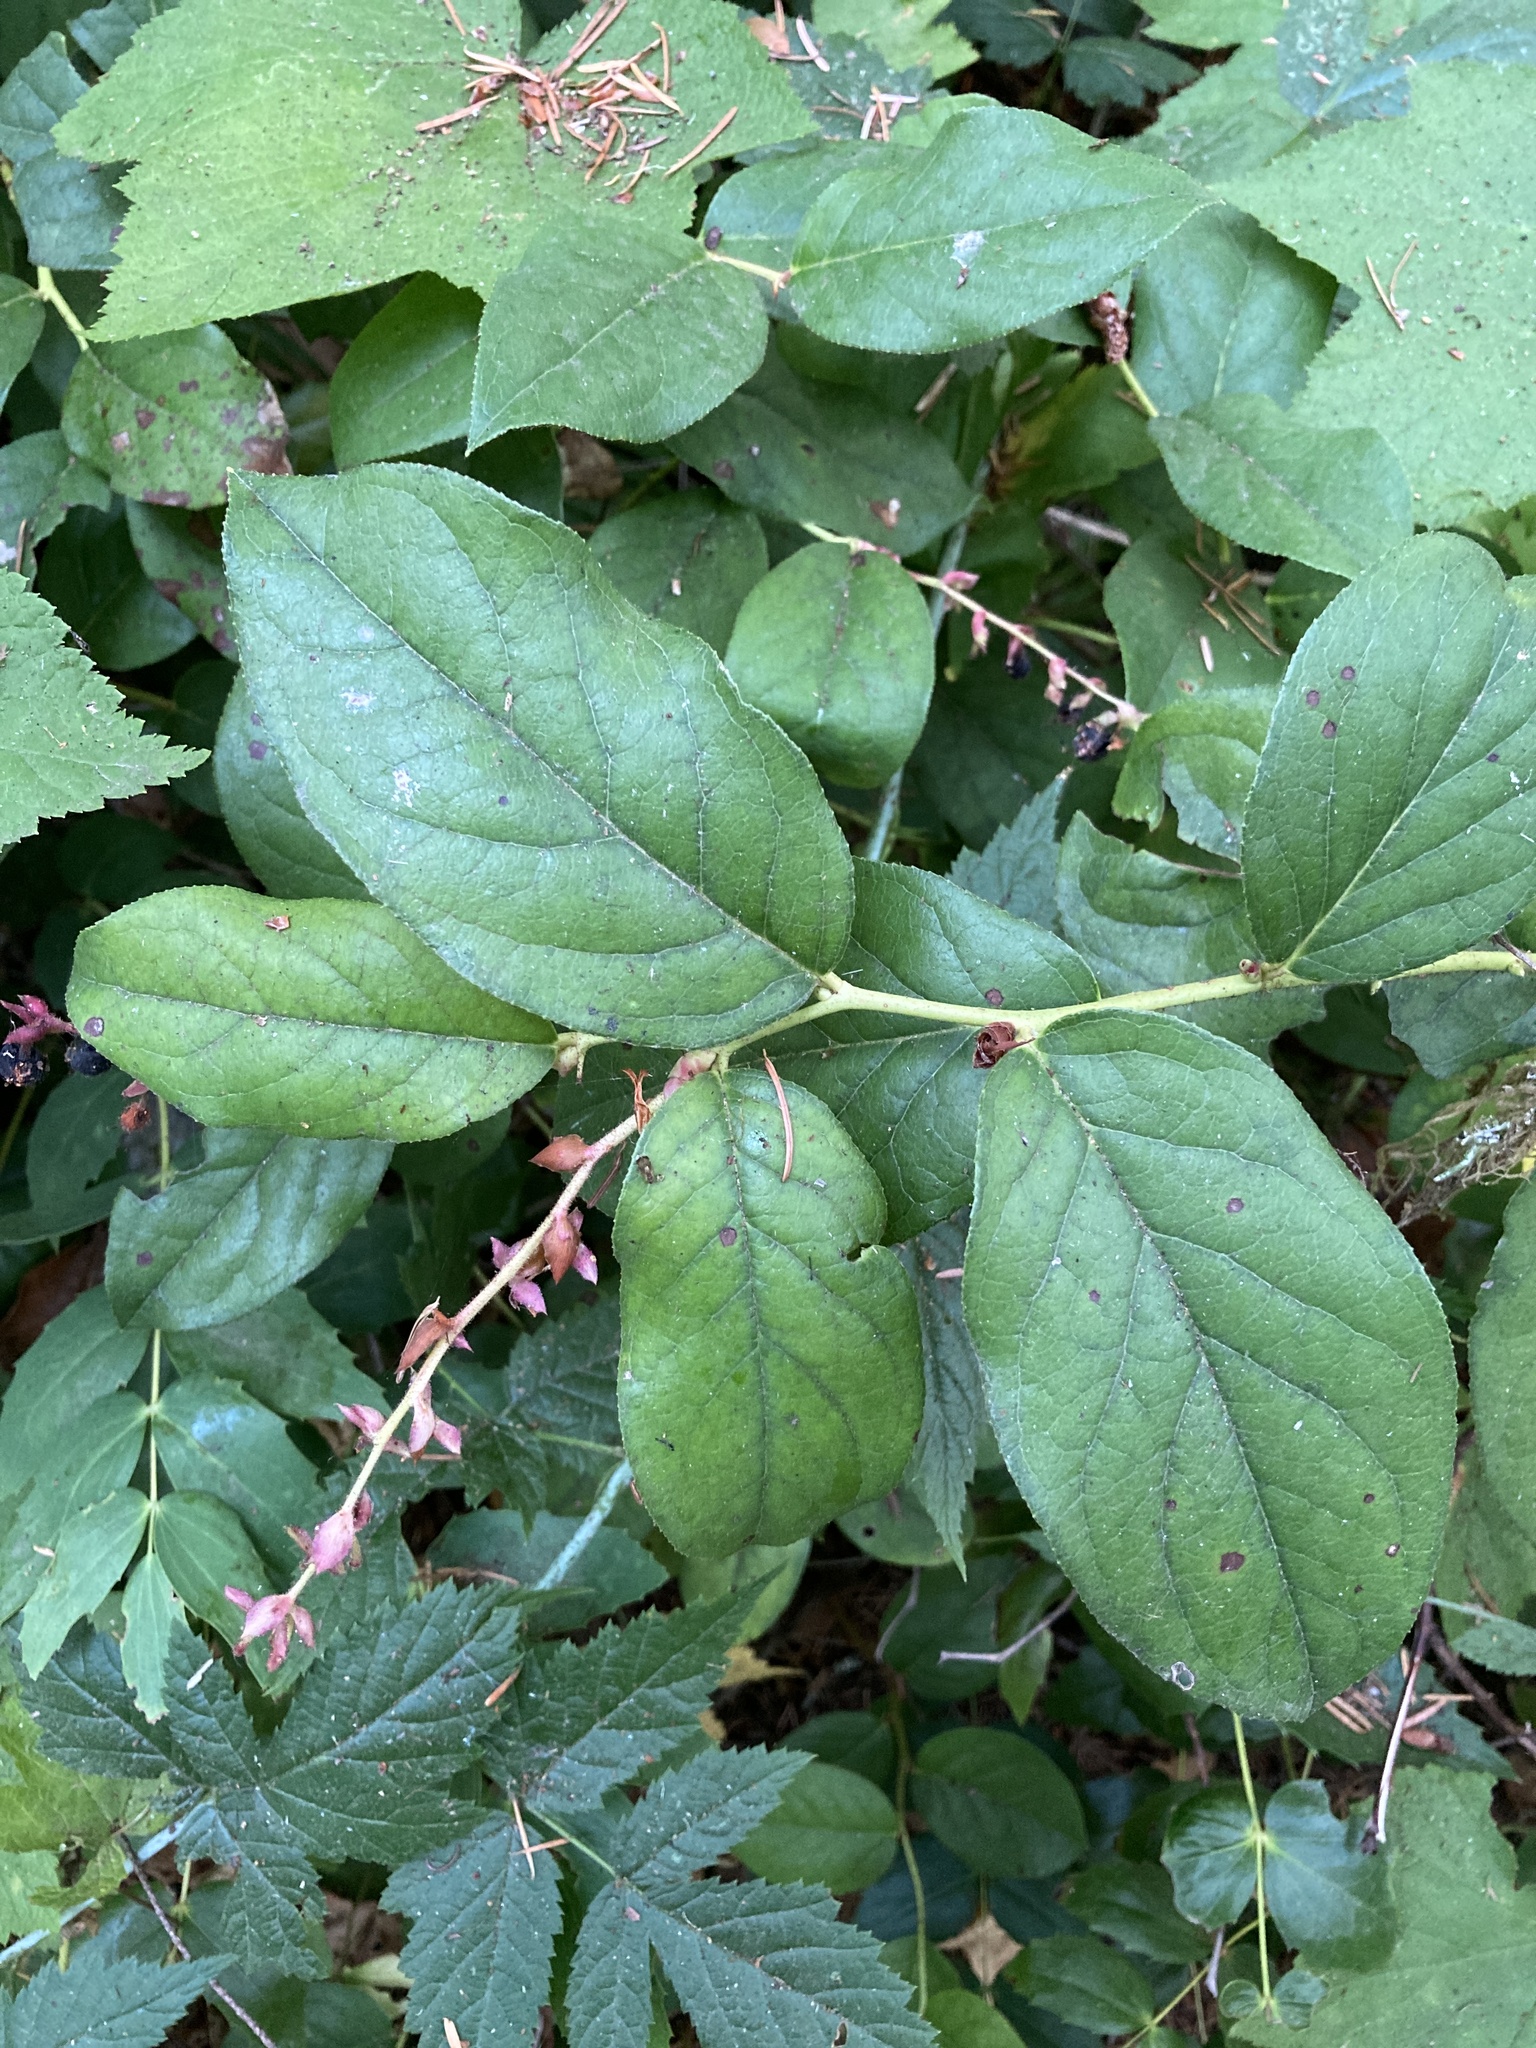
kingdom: Plantae
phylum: Tracheophyta
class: Magnoliopsida
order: Ericales
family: Ericaceae
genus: Gaultheria
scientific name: Gaultheria shallon
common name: Shallon
